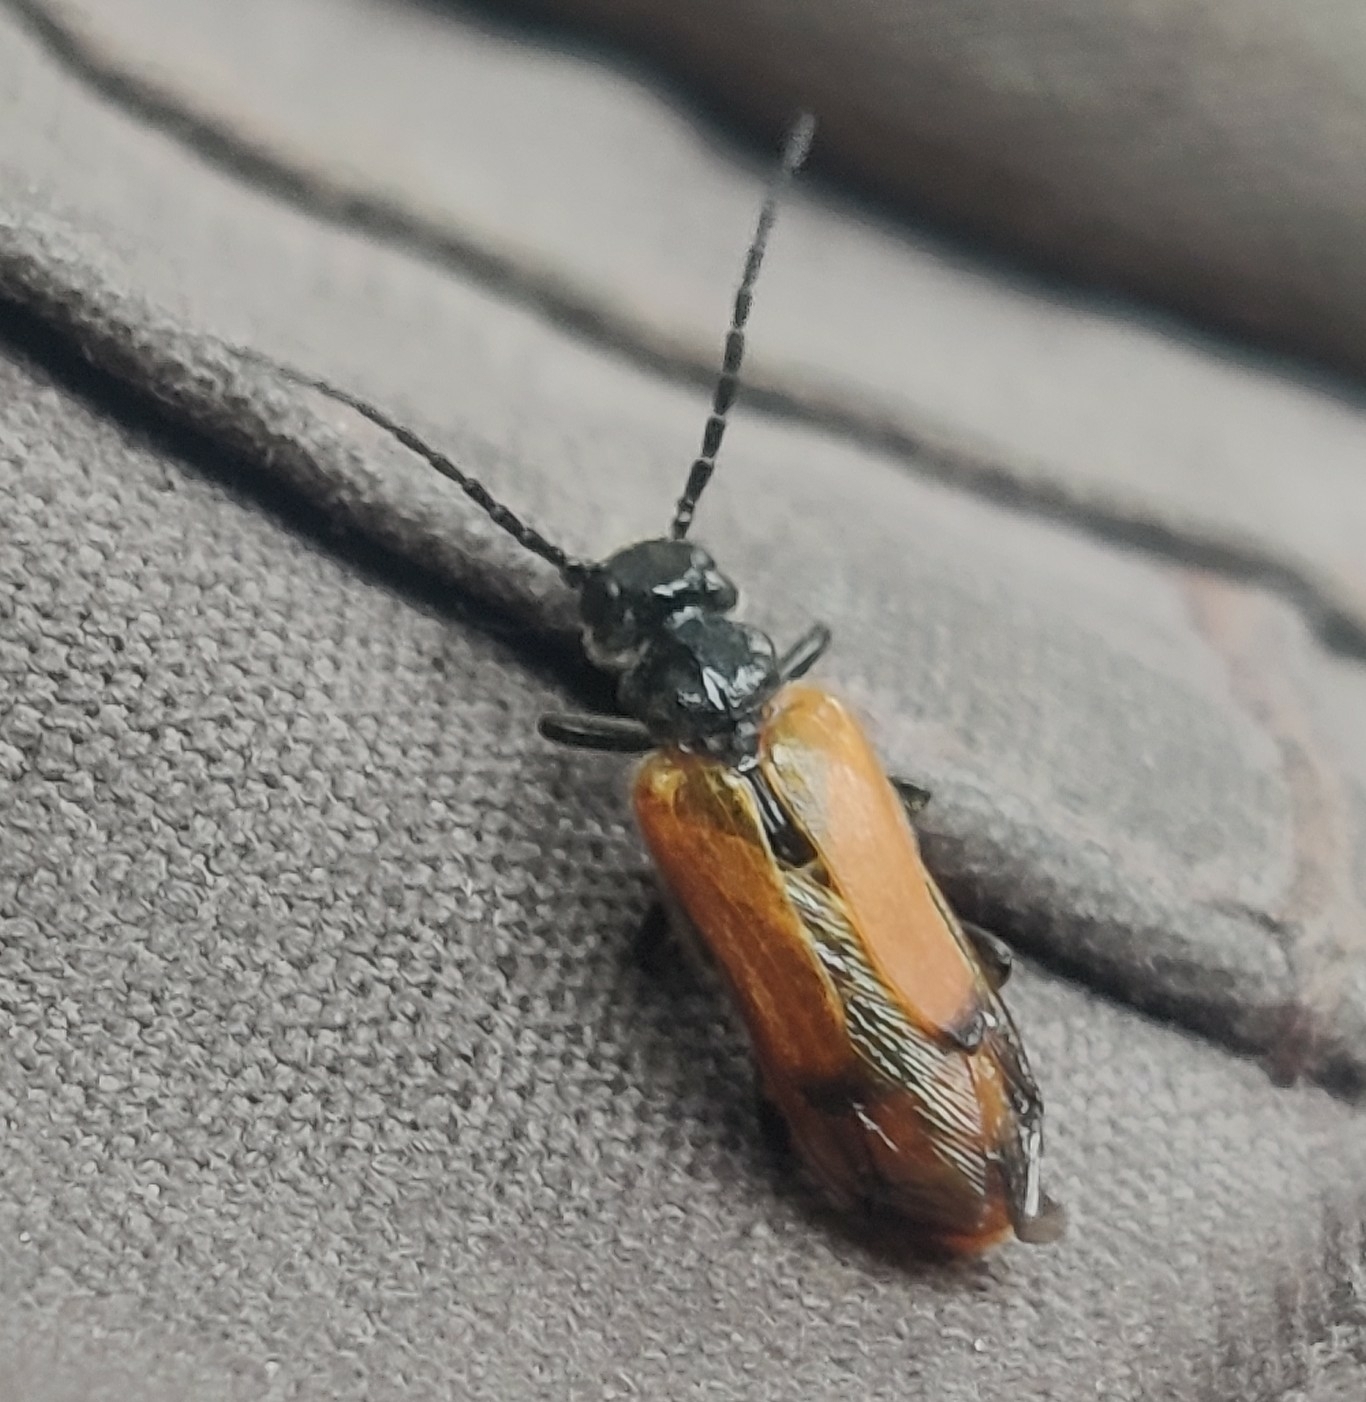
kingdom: Animalia
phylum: Arthropoda
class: Insecta
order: Coleoptera
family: Meloidae
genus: Stenoria
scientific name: Stenoria analis
